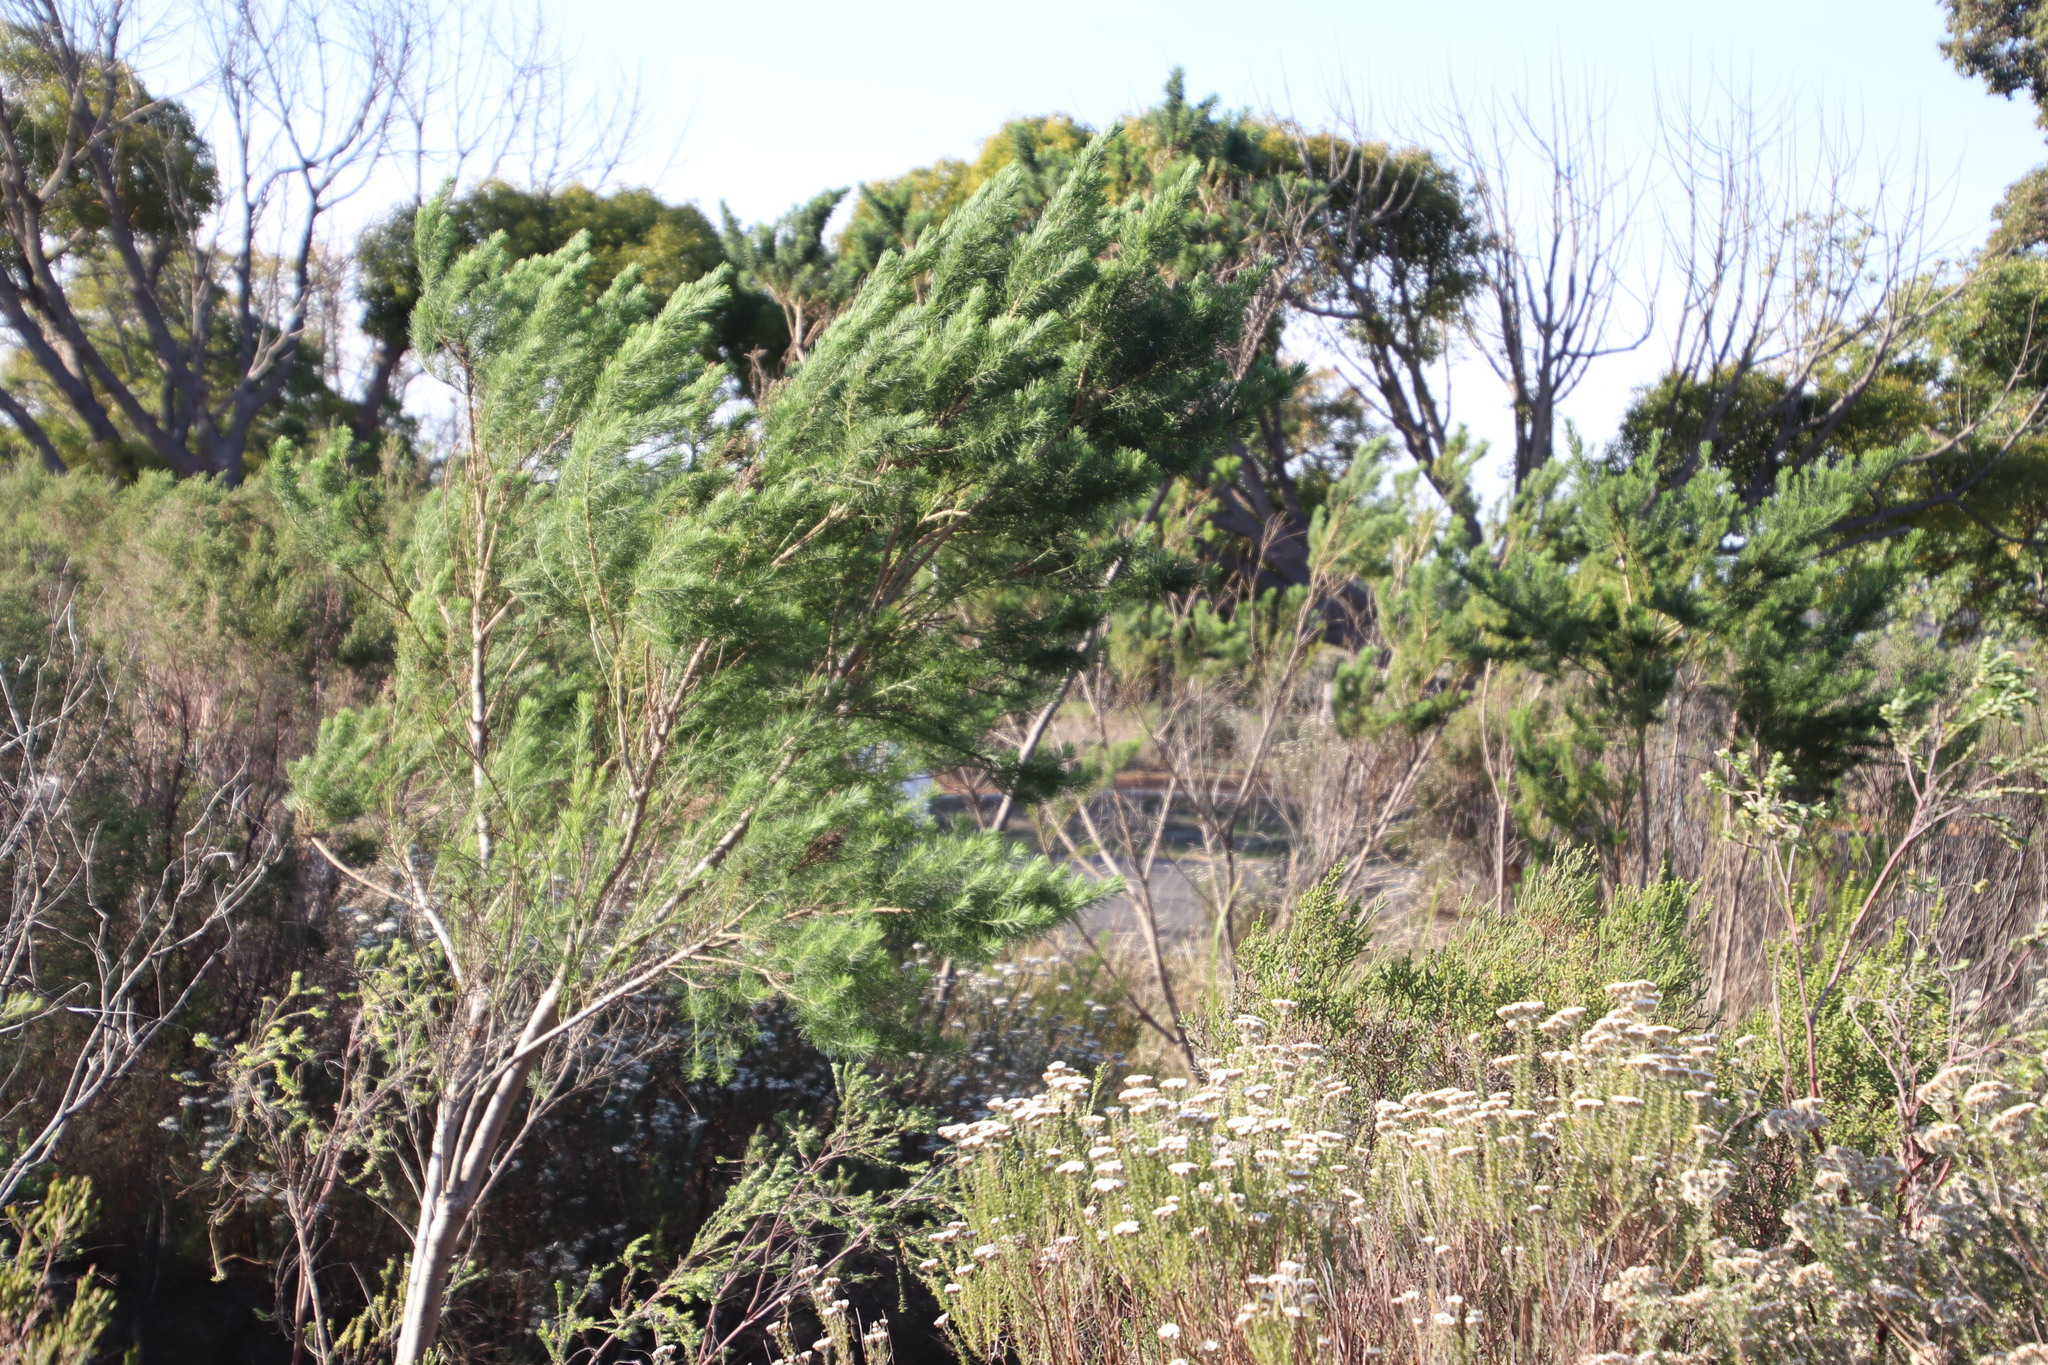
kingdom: Plantae
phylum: Tracheophyta
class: Magnoliopsida
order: Fabales
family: Fabaceae
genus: Psoralea
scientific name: Psoralea pinnata
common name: African scurfpea
